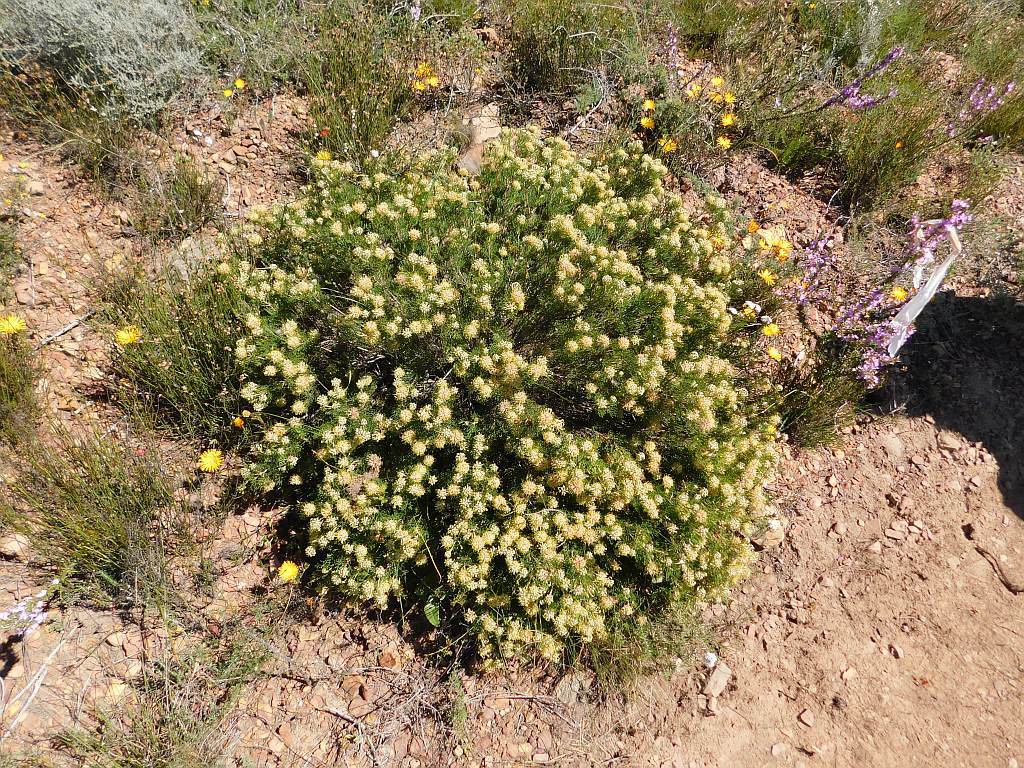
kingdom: Plantae
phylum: Tracheophyta
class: Magnoliopsida
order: Proteales
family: Proteaceae
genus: Serruria
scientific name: Serruria
